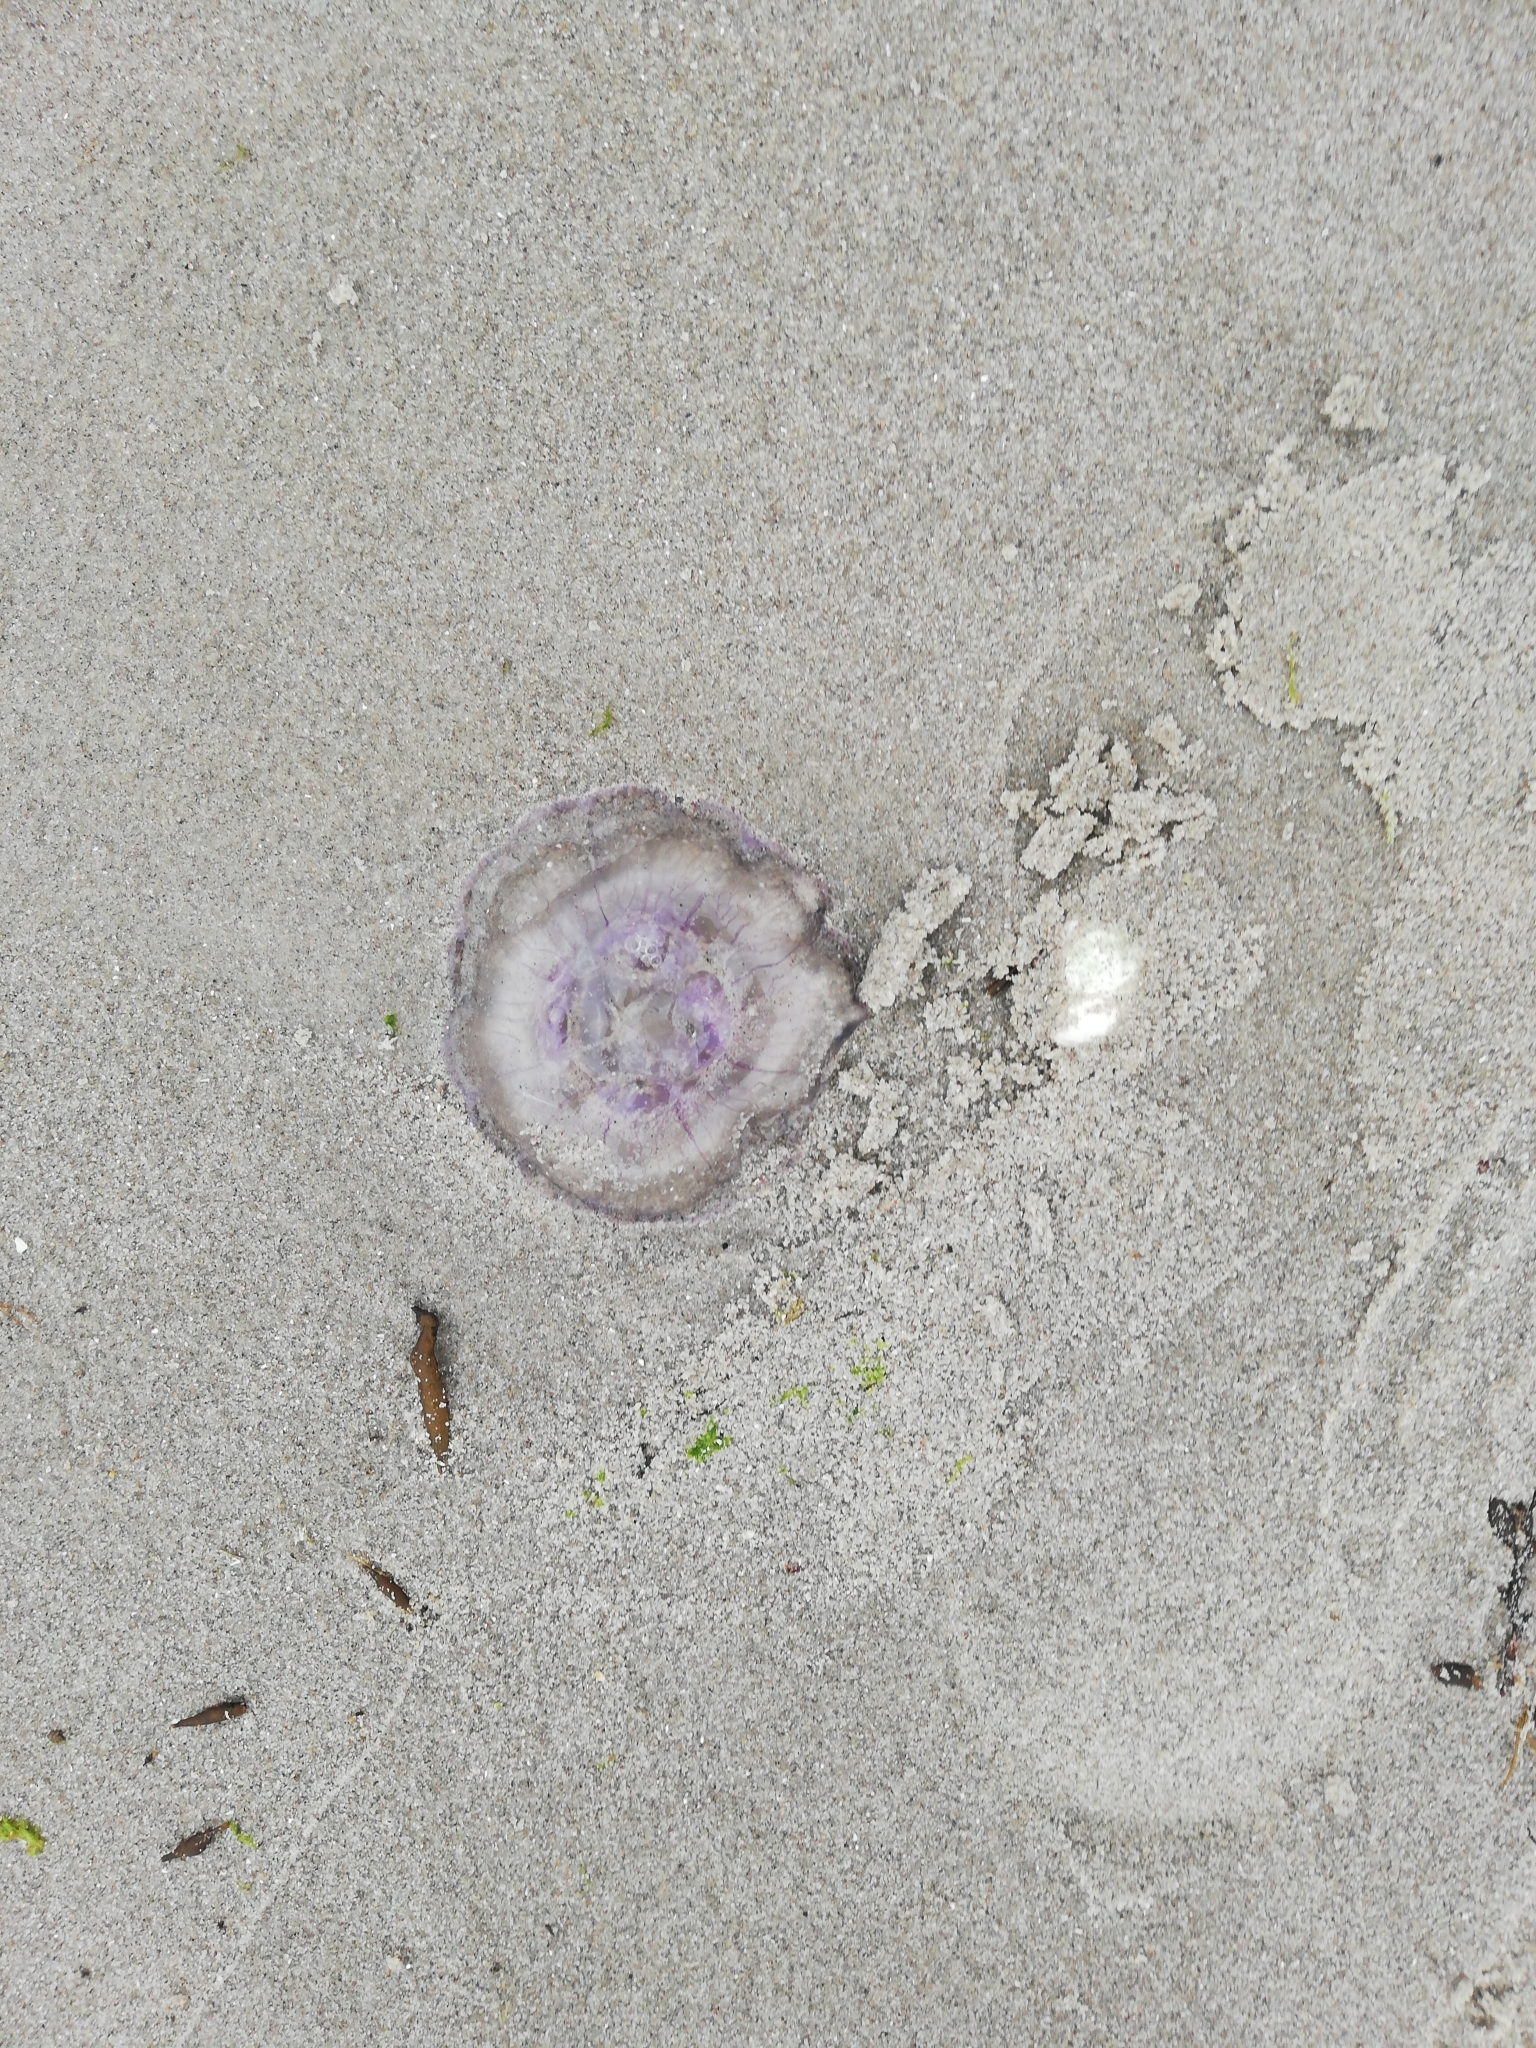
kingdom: Animalia
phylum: Cnidaria
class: Scyphozoa
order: Semaeostomeae
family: Ulmaridae
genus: Aurelia
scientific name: Aurelia aurita
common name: Moon jellyfish
